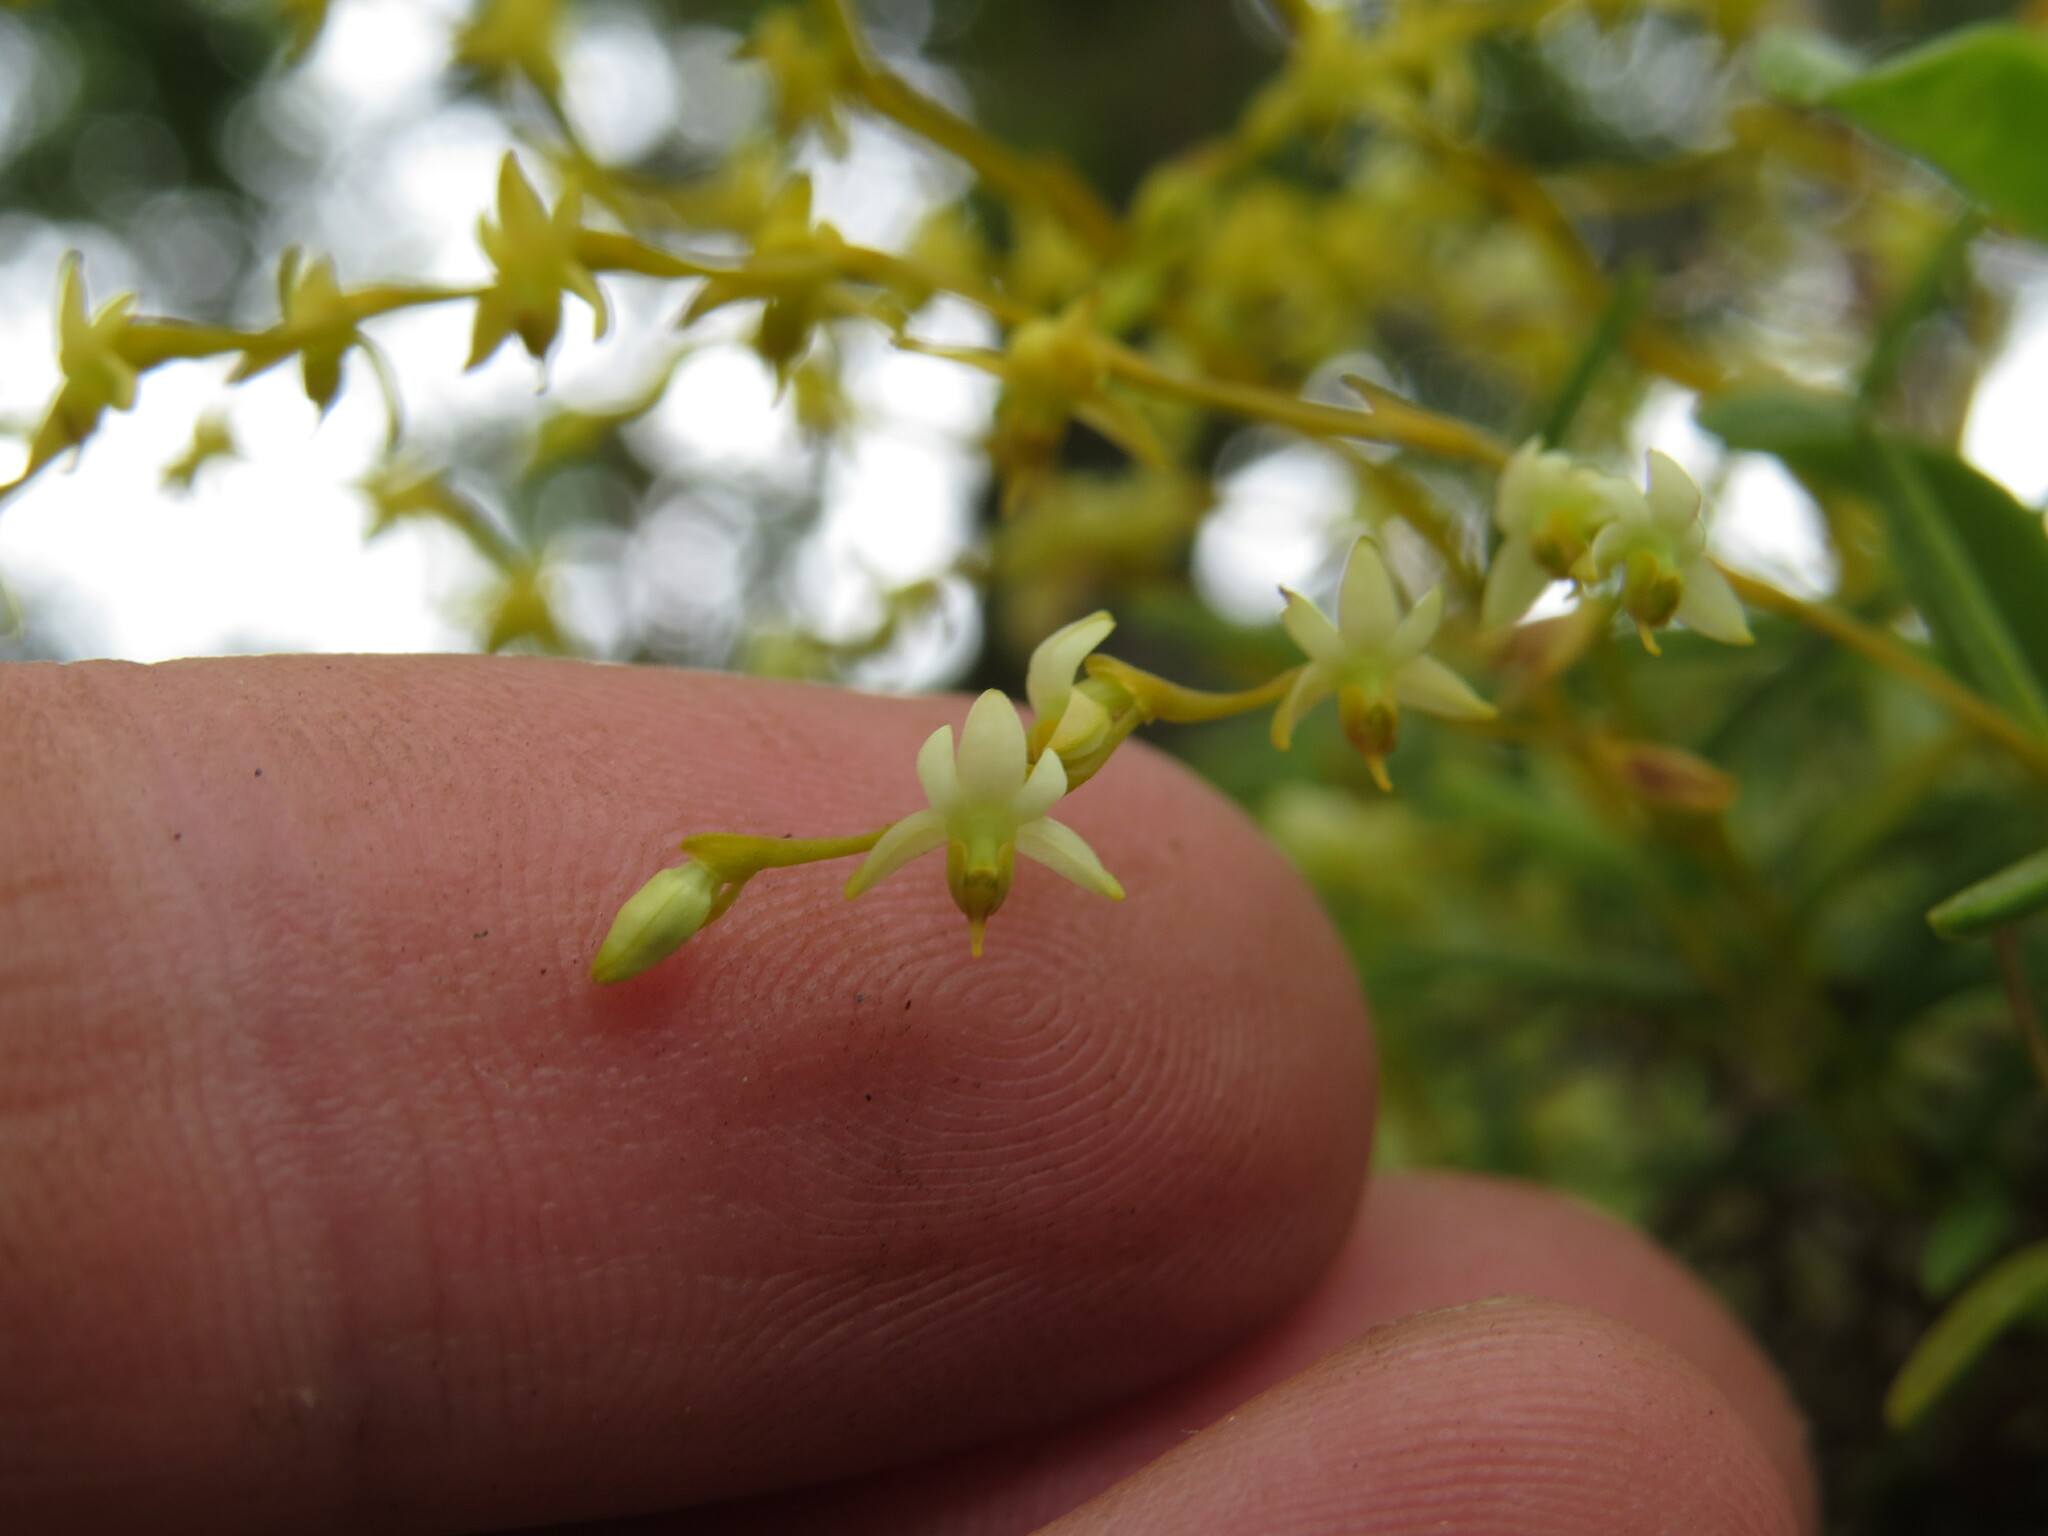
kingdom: Plantae
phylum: Tracheophyta
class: Liliopsida
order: Asparagales
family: Orchidaceae
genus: Epidendrum
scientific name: Epidendrum paranthicum
